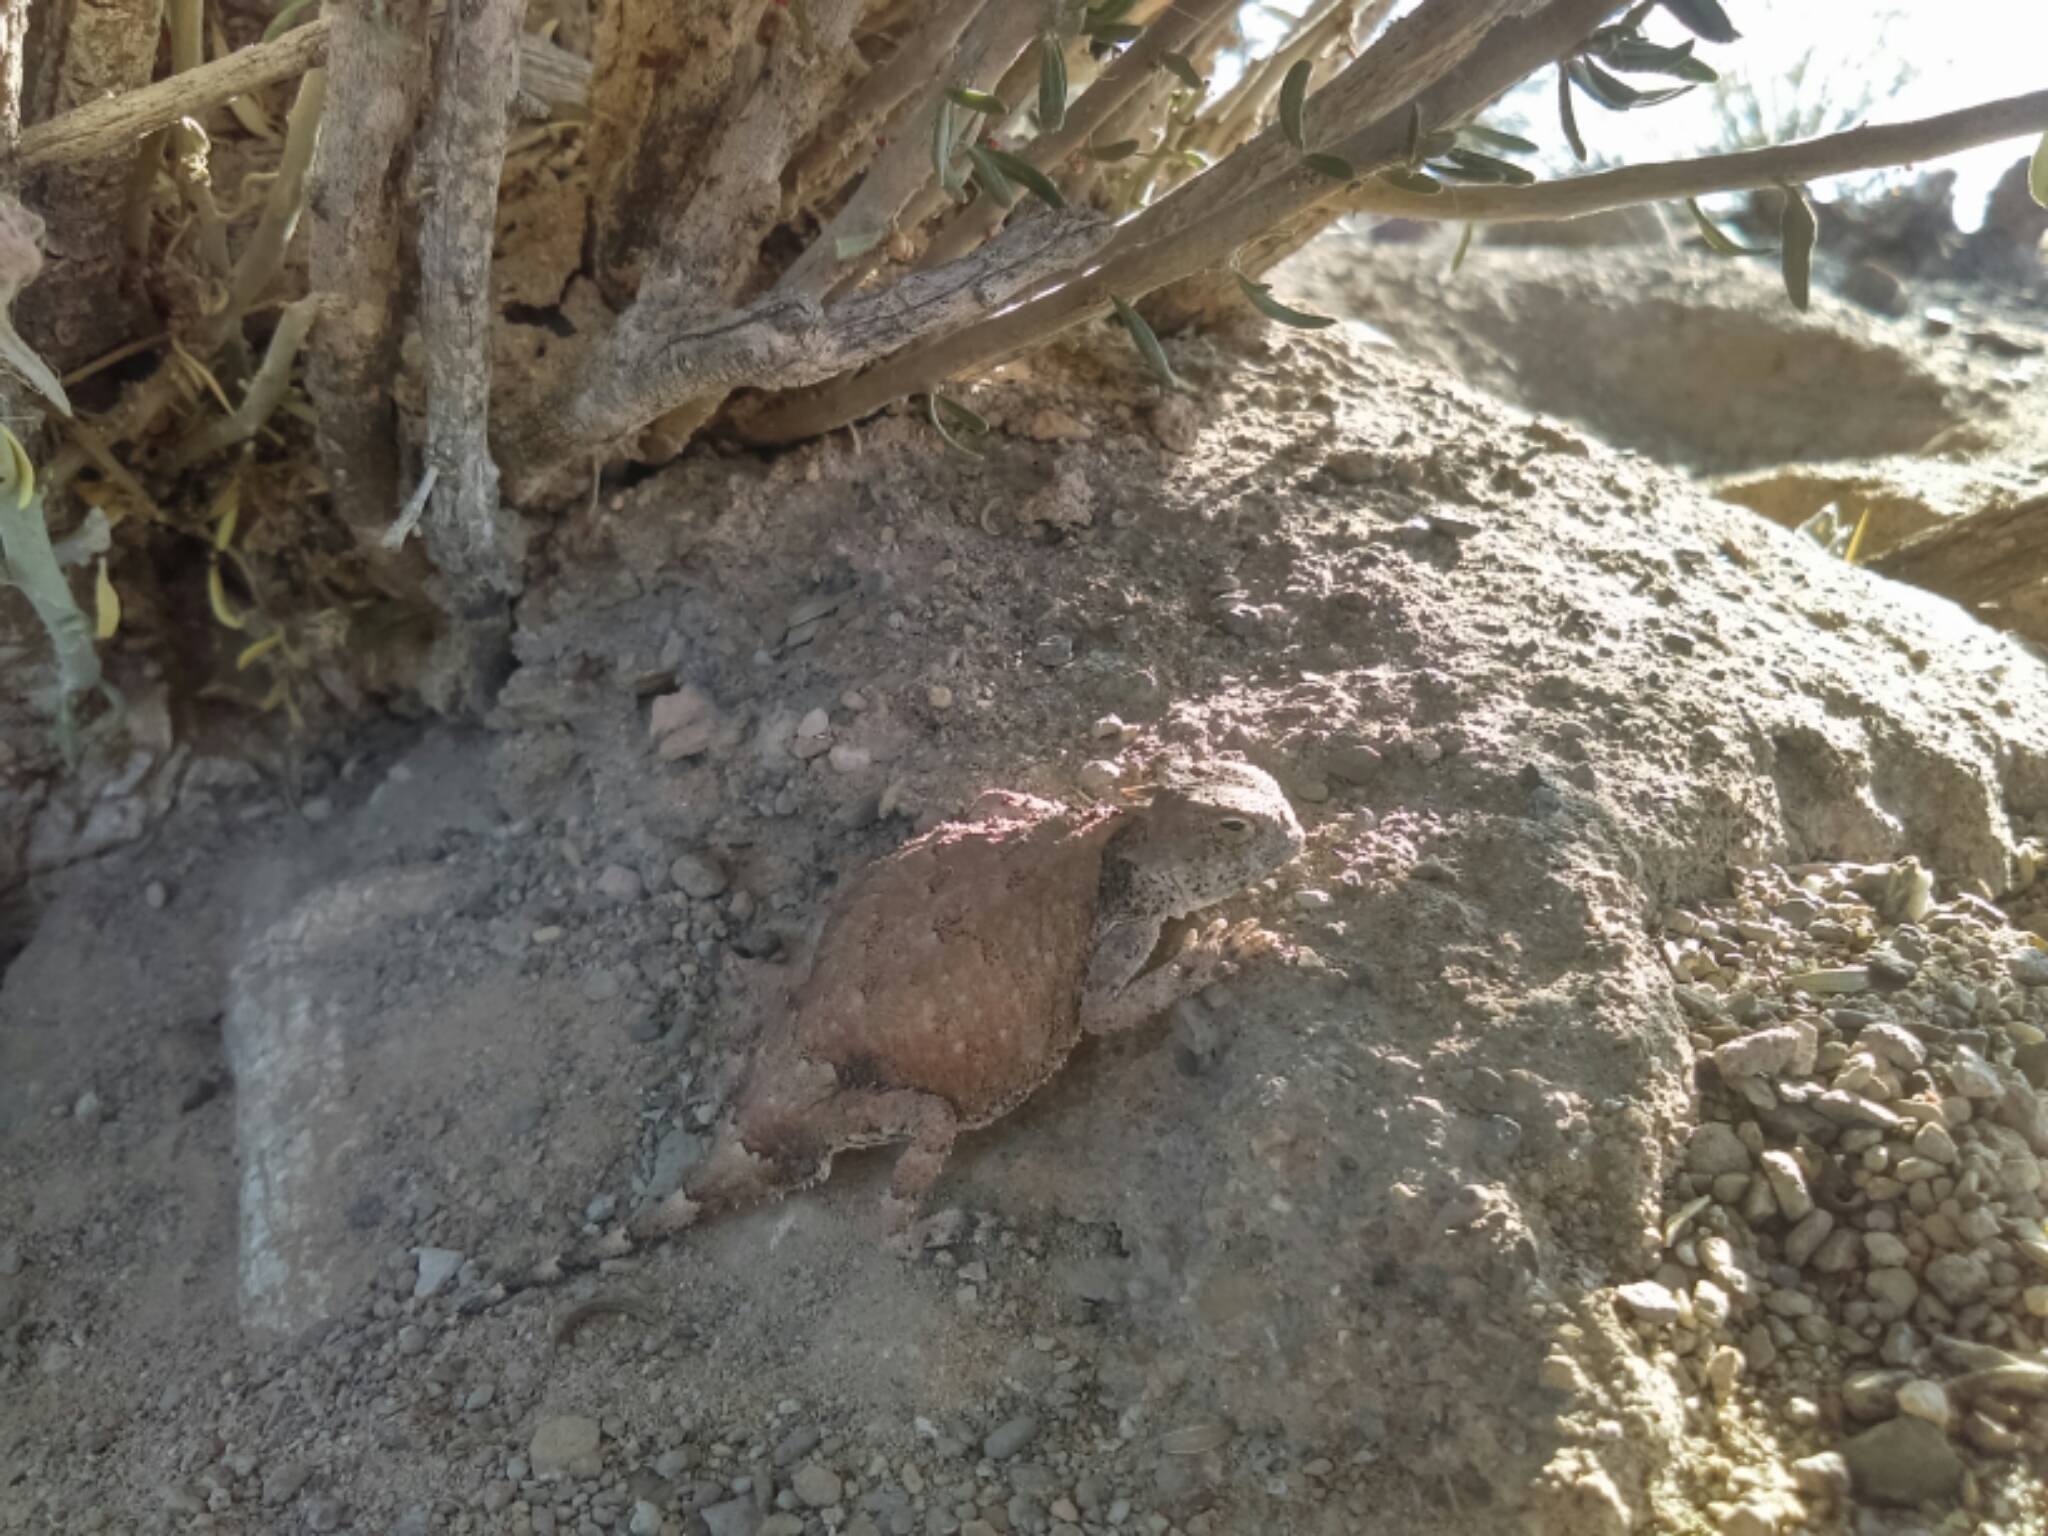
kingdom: Animalia
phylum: Chordata
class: Squamata
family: Phrynosomatidae
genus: Phrynosoma
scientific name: Phrynosoma modestum
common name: Roundtail horned lizard
